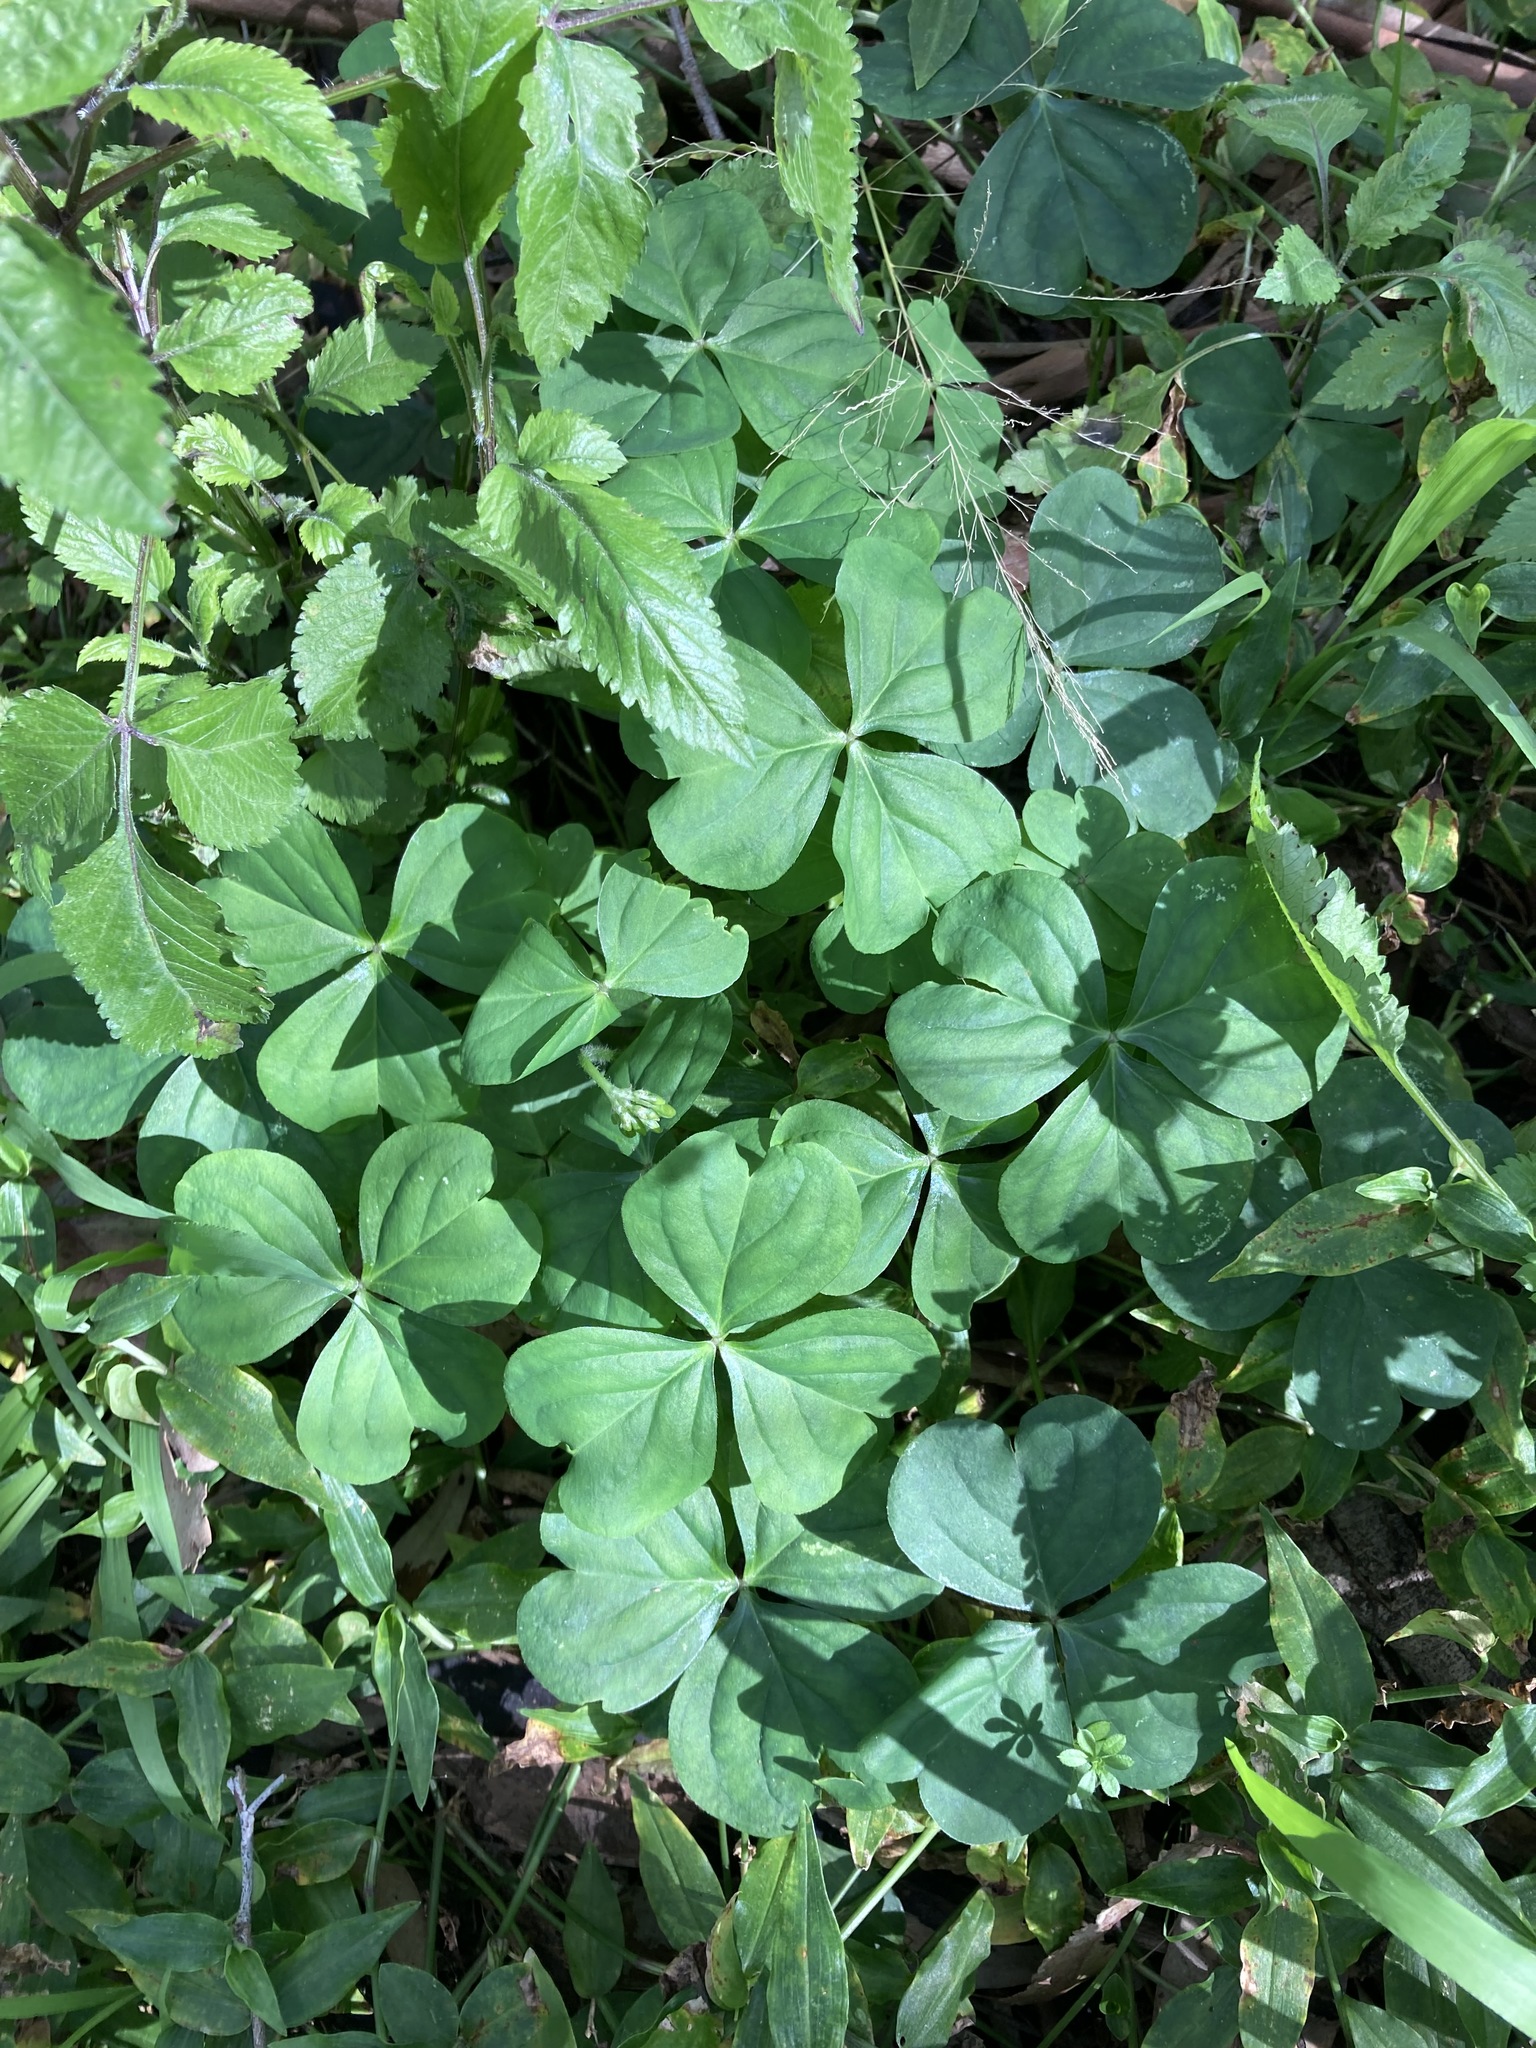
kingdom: Plantae
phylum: Tracheophyta
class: Magnoliopsida
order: Oxalidales
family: Oxalidaceae
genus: Oxalis
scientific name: Oxalis debilis
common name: Large-flowered pink-sorrel
